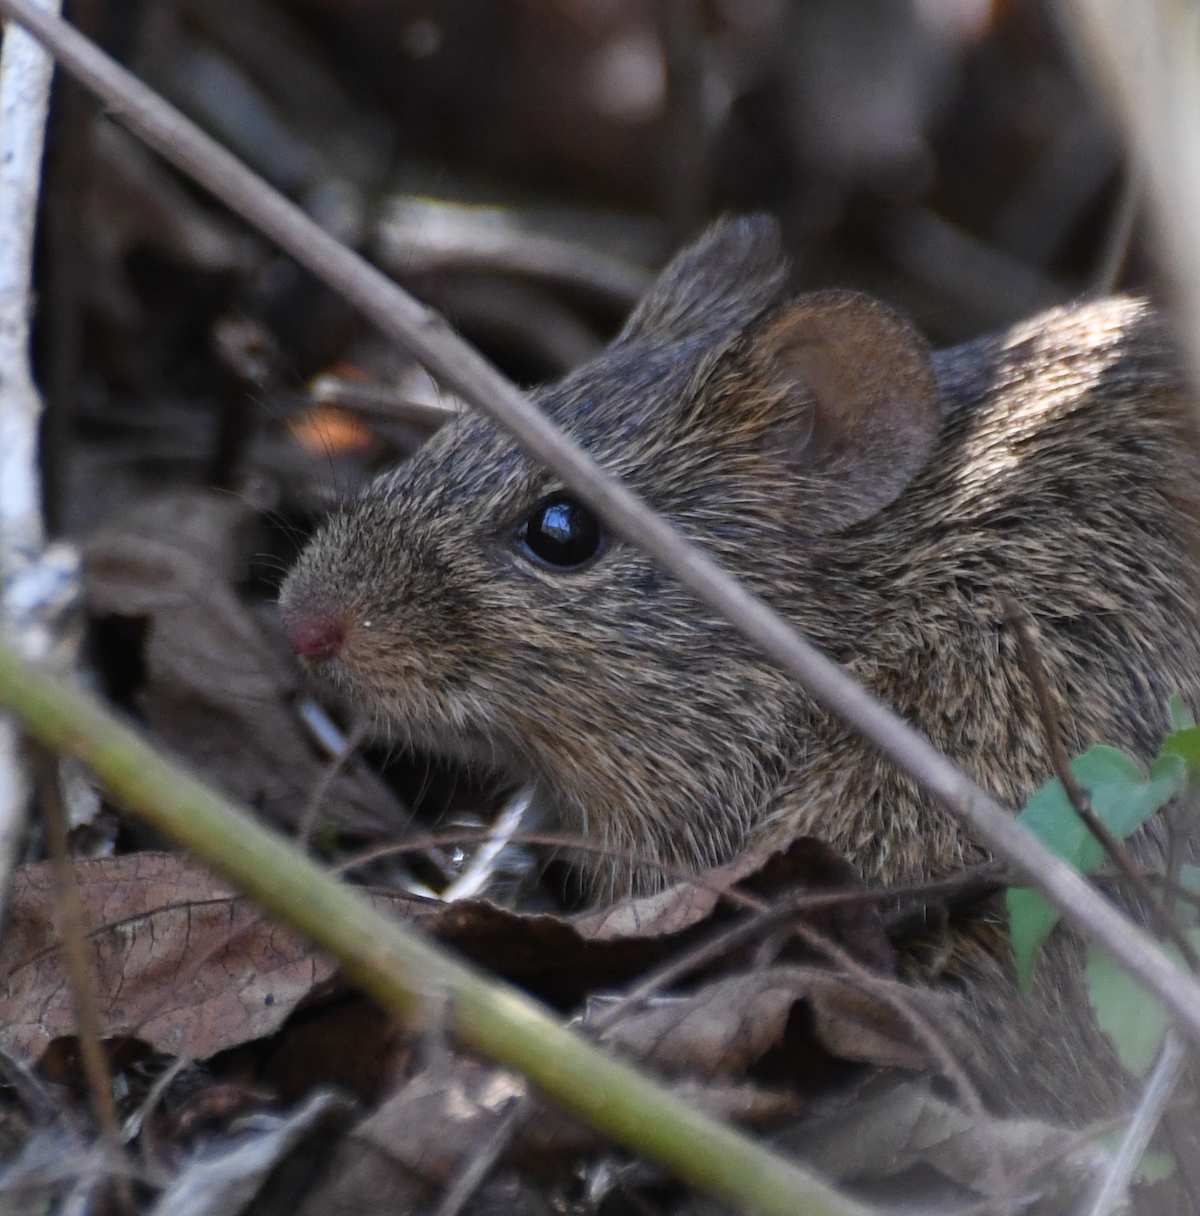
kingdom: Animalia
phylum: Chordata
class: Mammalia
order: Rodentia
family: Cricetidae
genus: Sigmodon
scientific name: Sigmodon hispidus
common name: Hispid cotton rat
